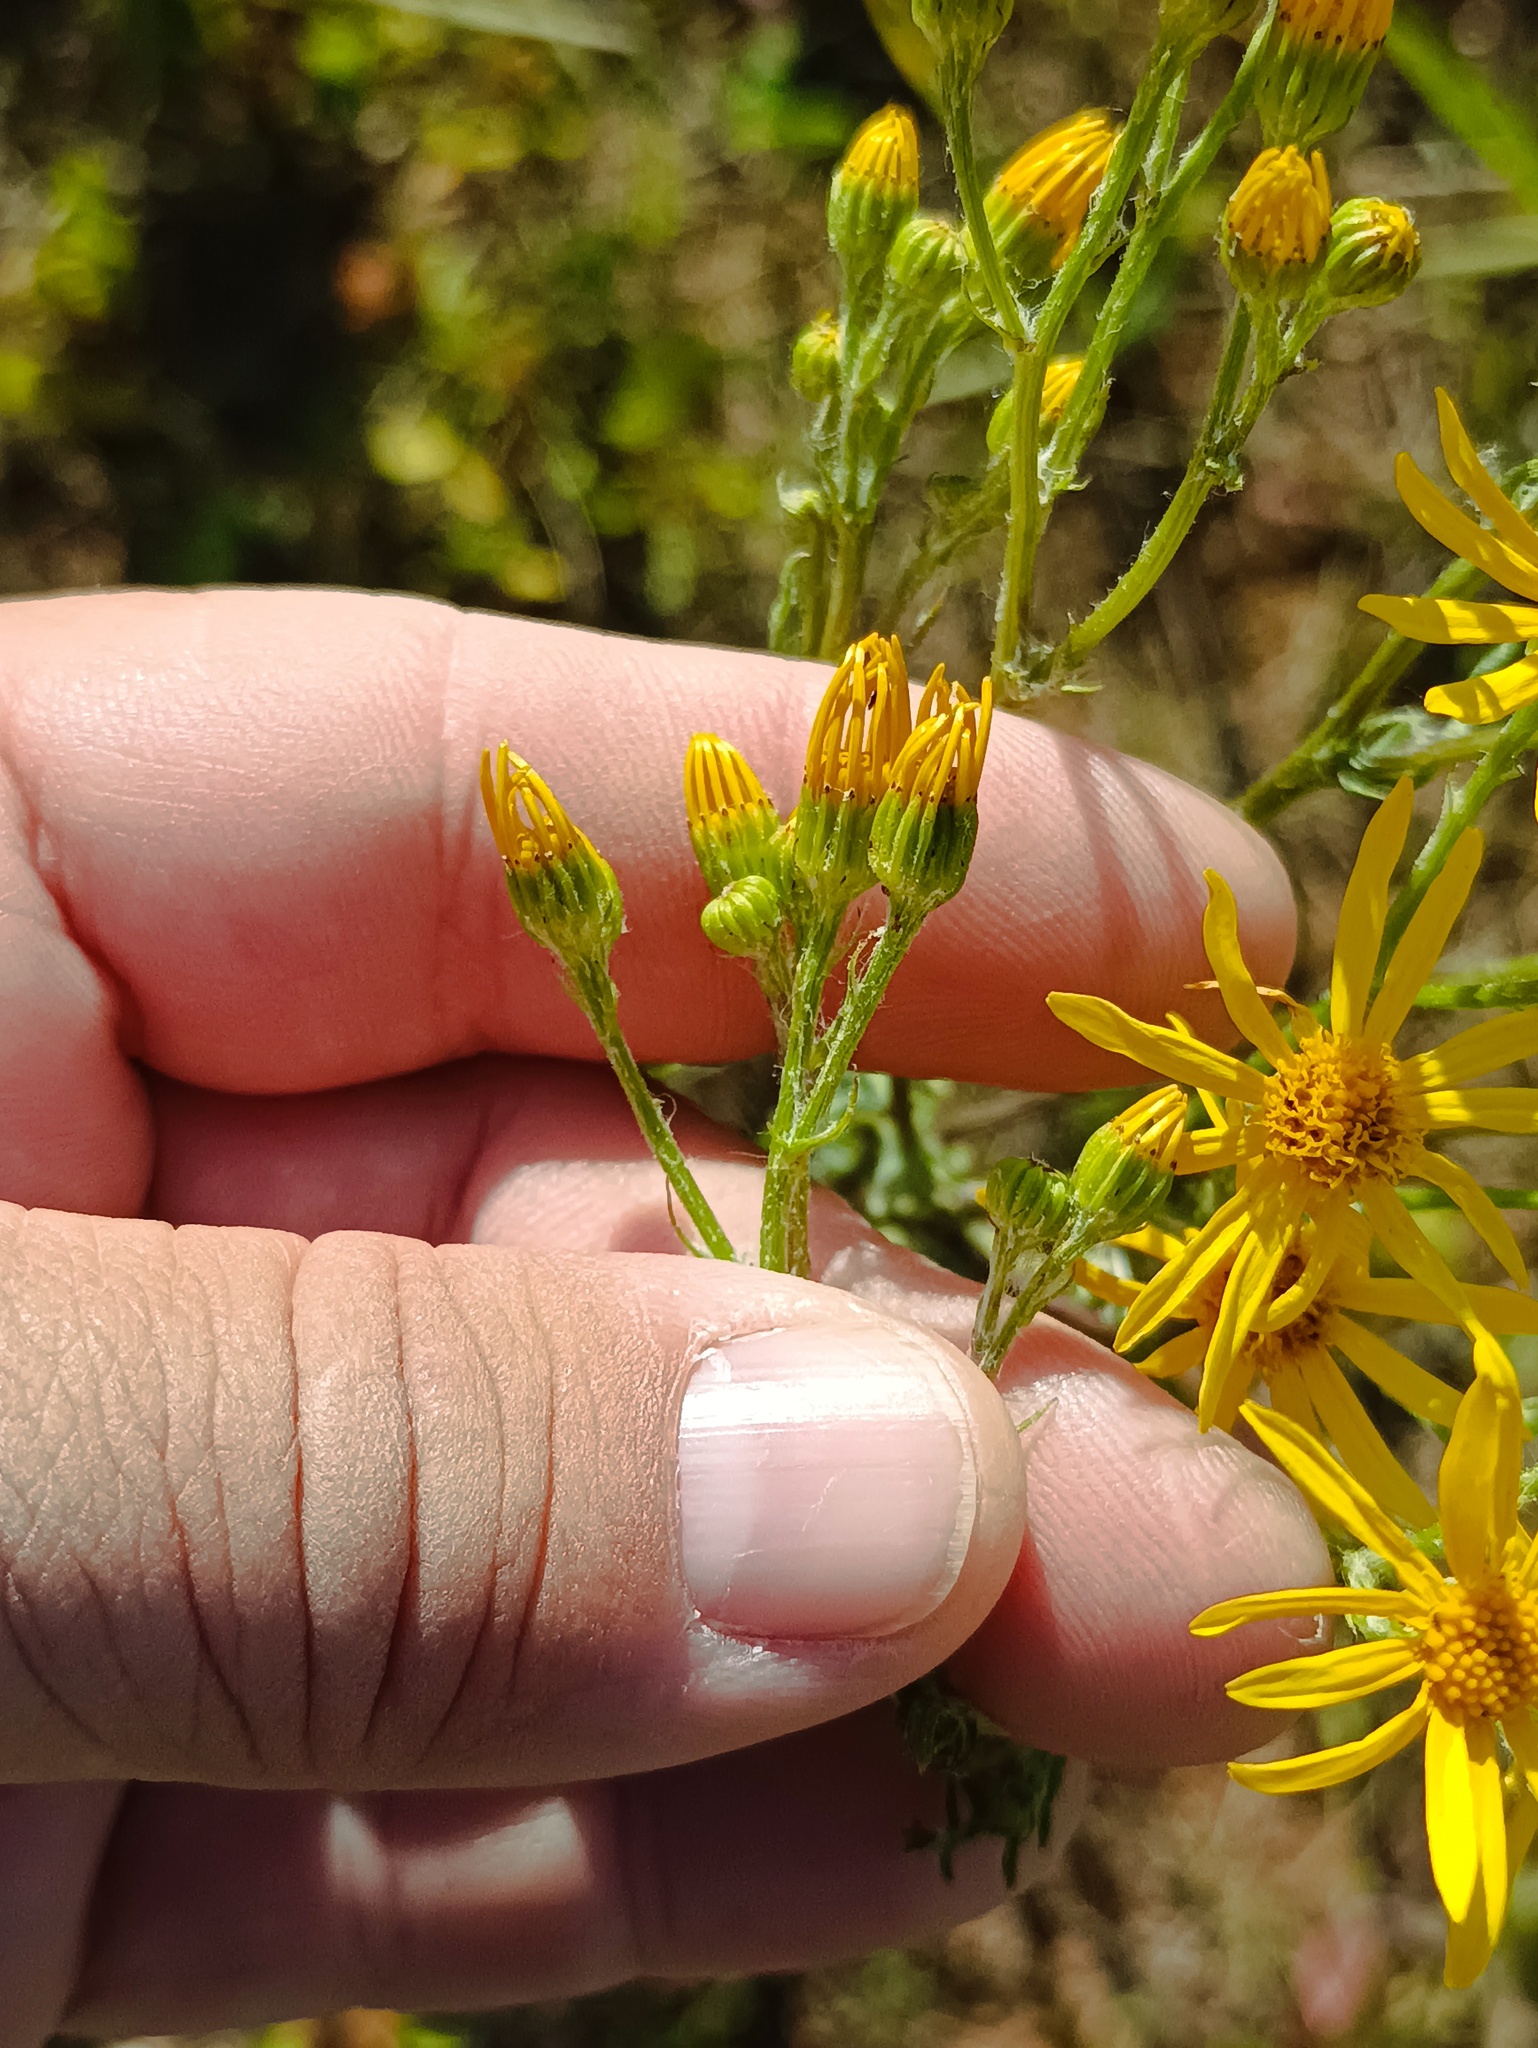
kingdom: Plantae
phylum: Tracheophyta
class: Magnoliopsida
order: Asterales
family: Asteraceae
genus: Jacobaea
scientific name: Jacobaea vulgaris
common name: Stinking willie
